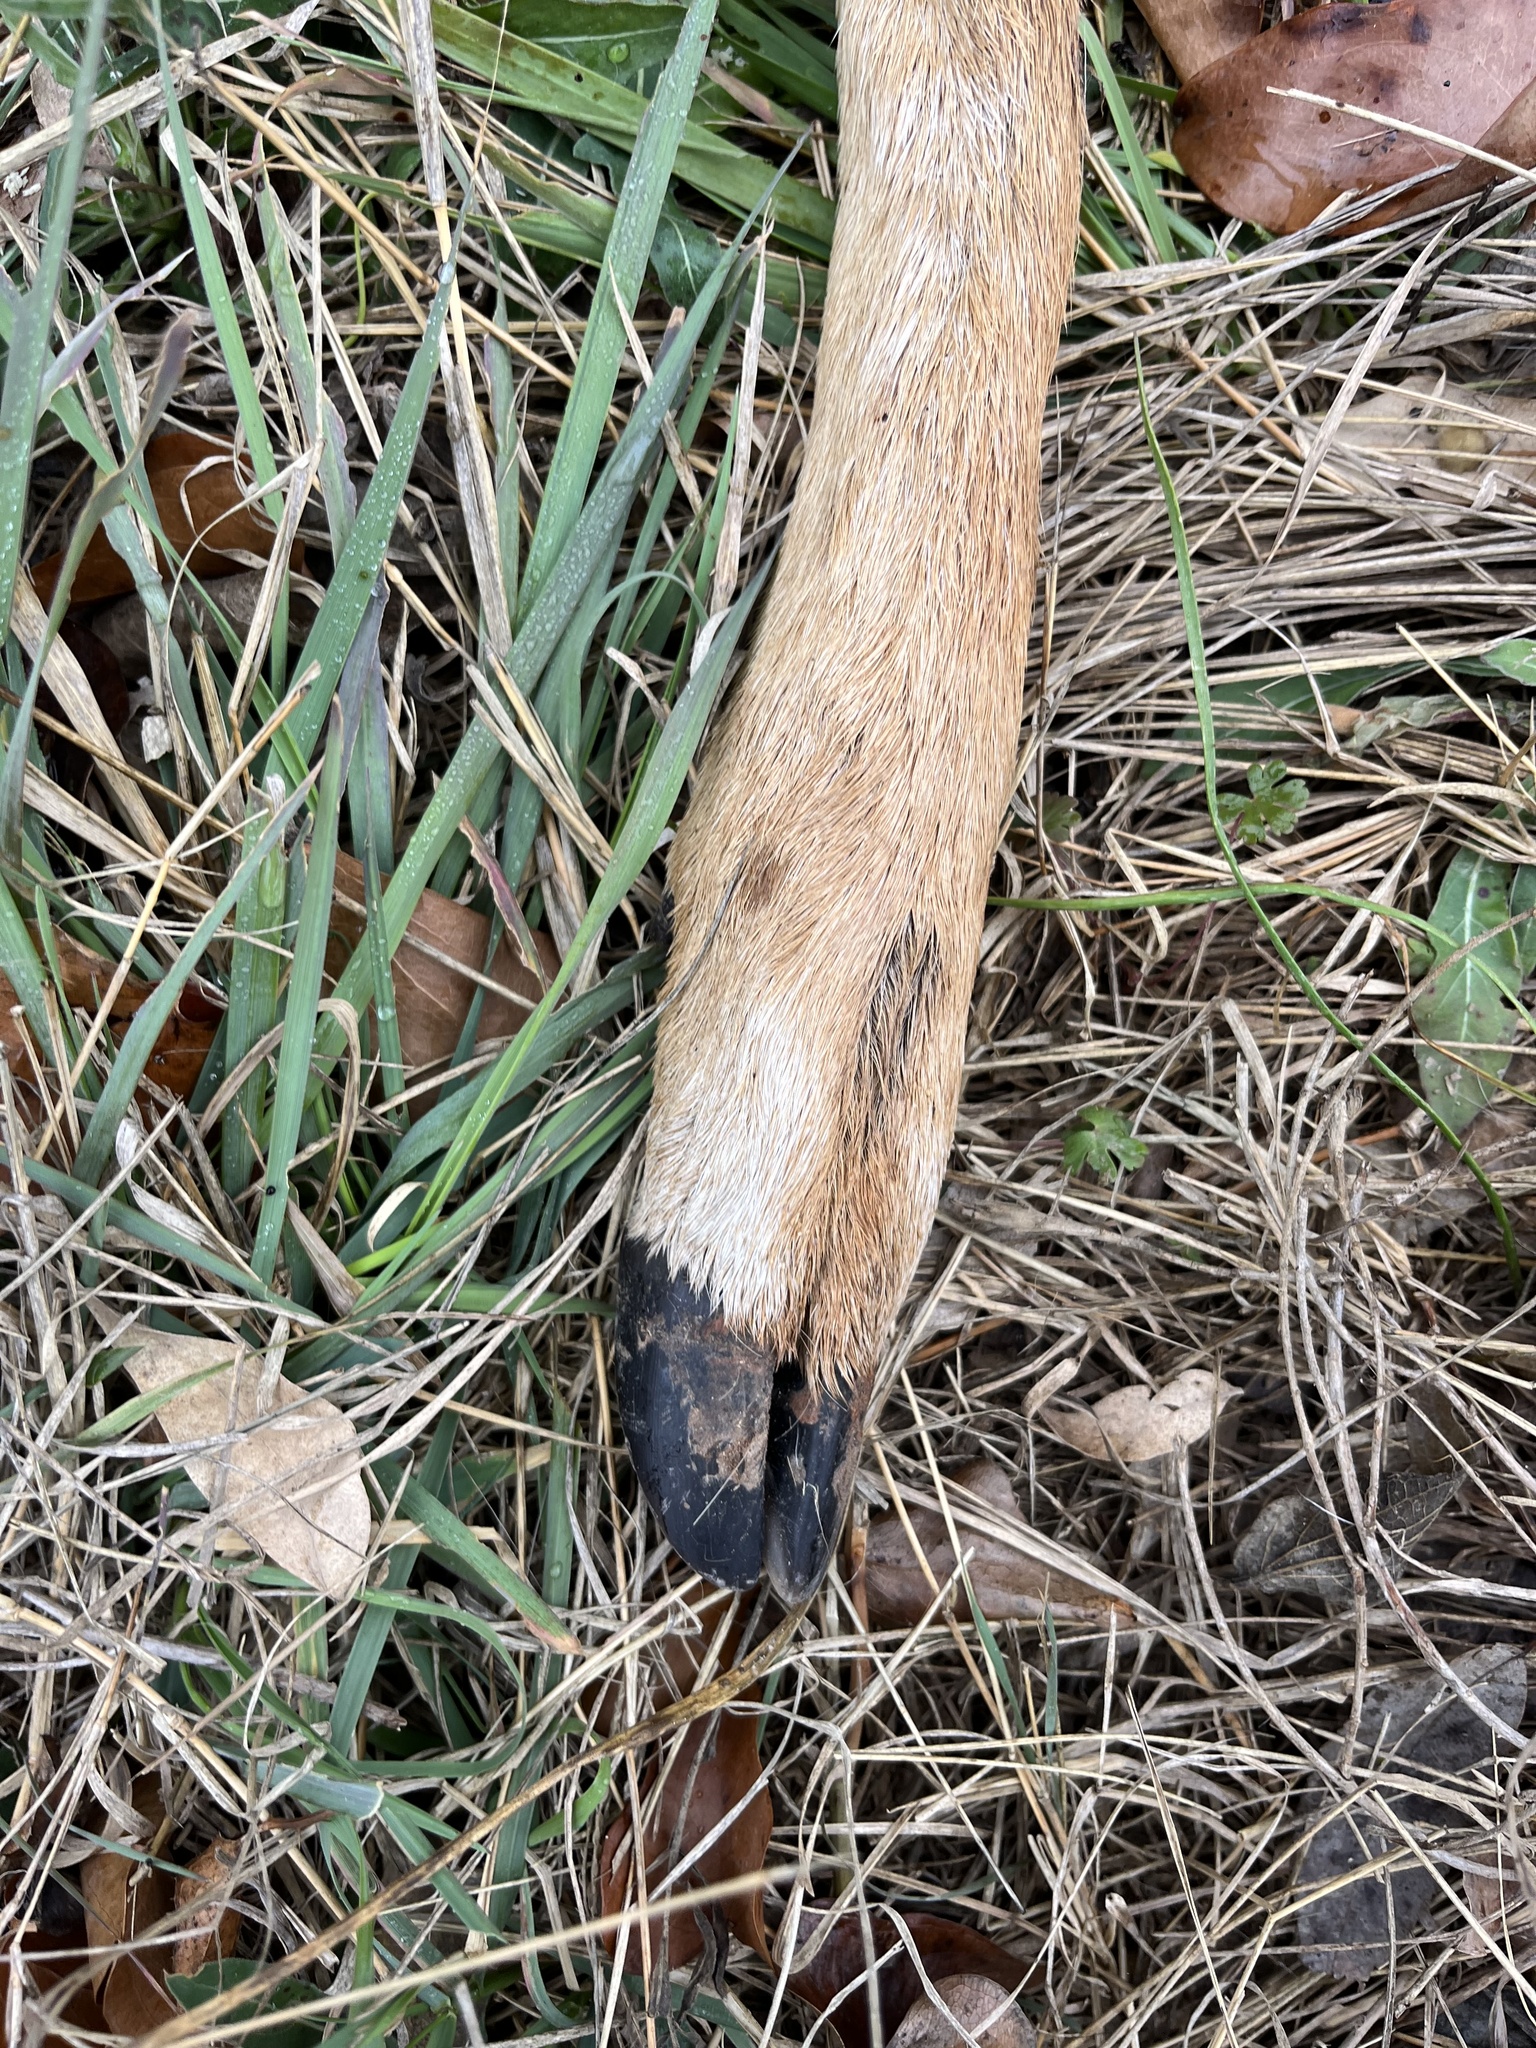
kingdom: Animalia
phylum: Chordata
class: Mammalia
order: Artiodactyla
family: Cervidae
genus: Axis
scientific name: Axis axis
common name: Chital
